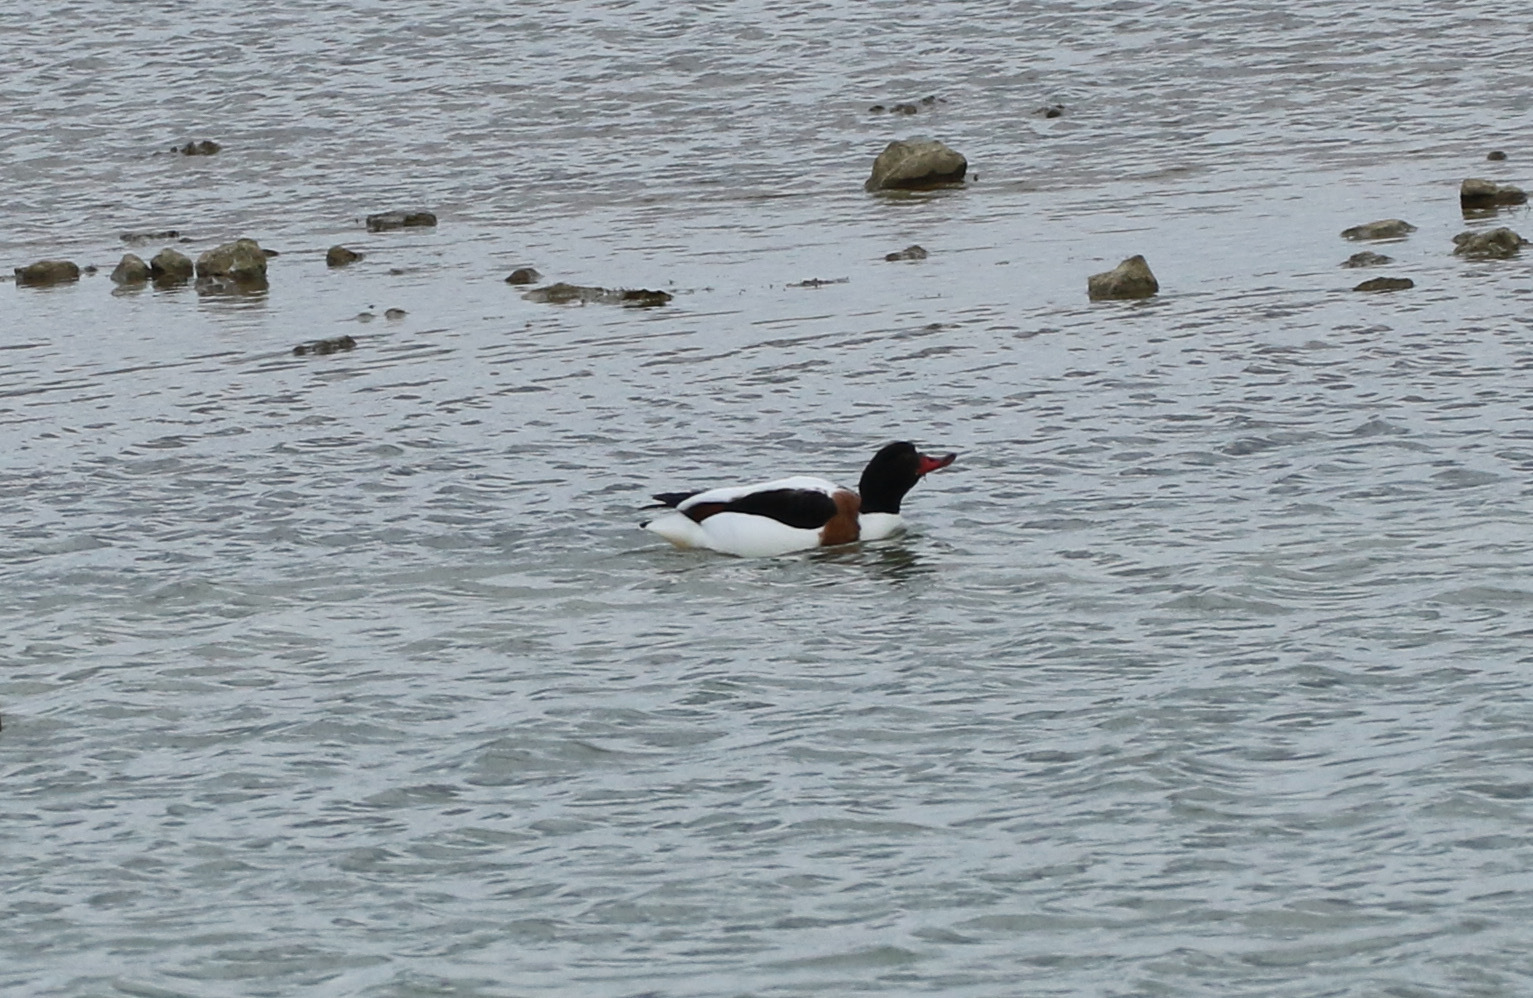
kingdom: Animalia
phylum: Chordata
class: Aves
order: Anseriformes
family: Anatidae
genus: Tadorna
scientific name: Tadorna tadorna
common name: Common shelduck
